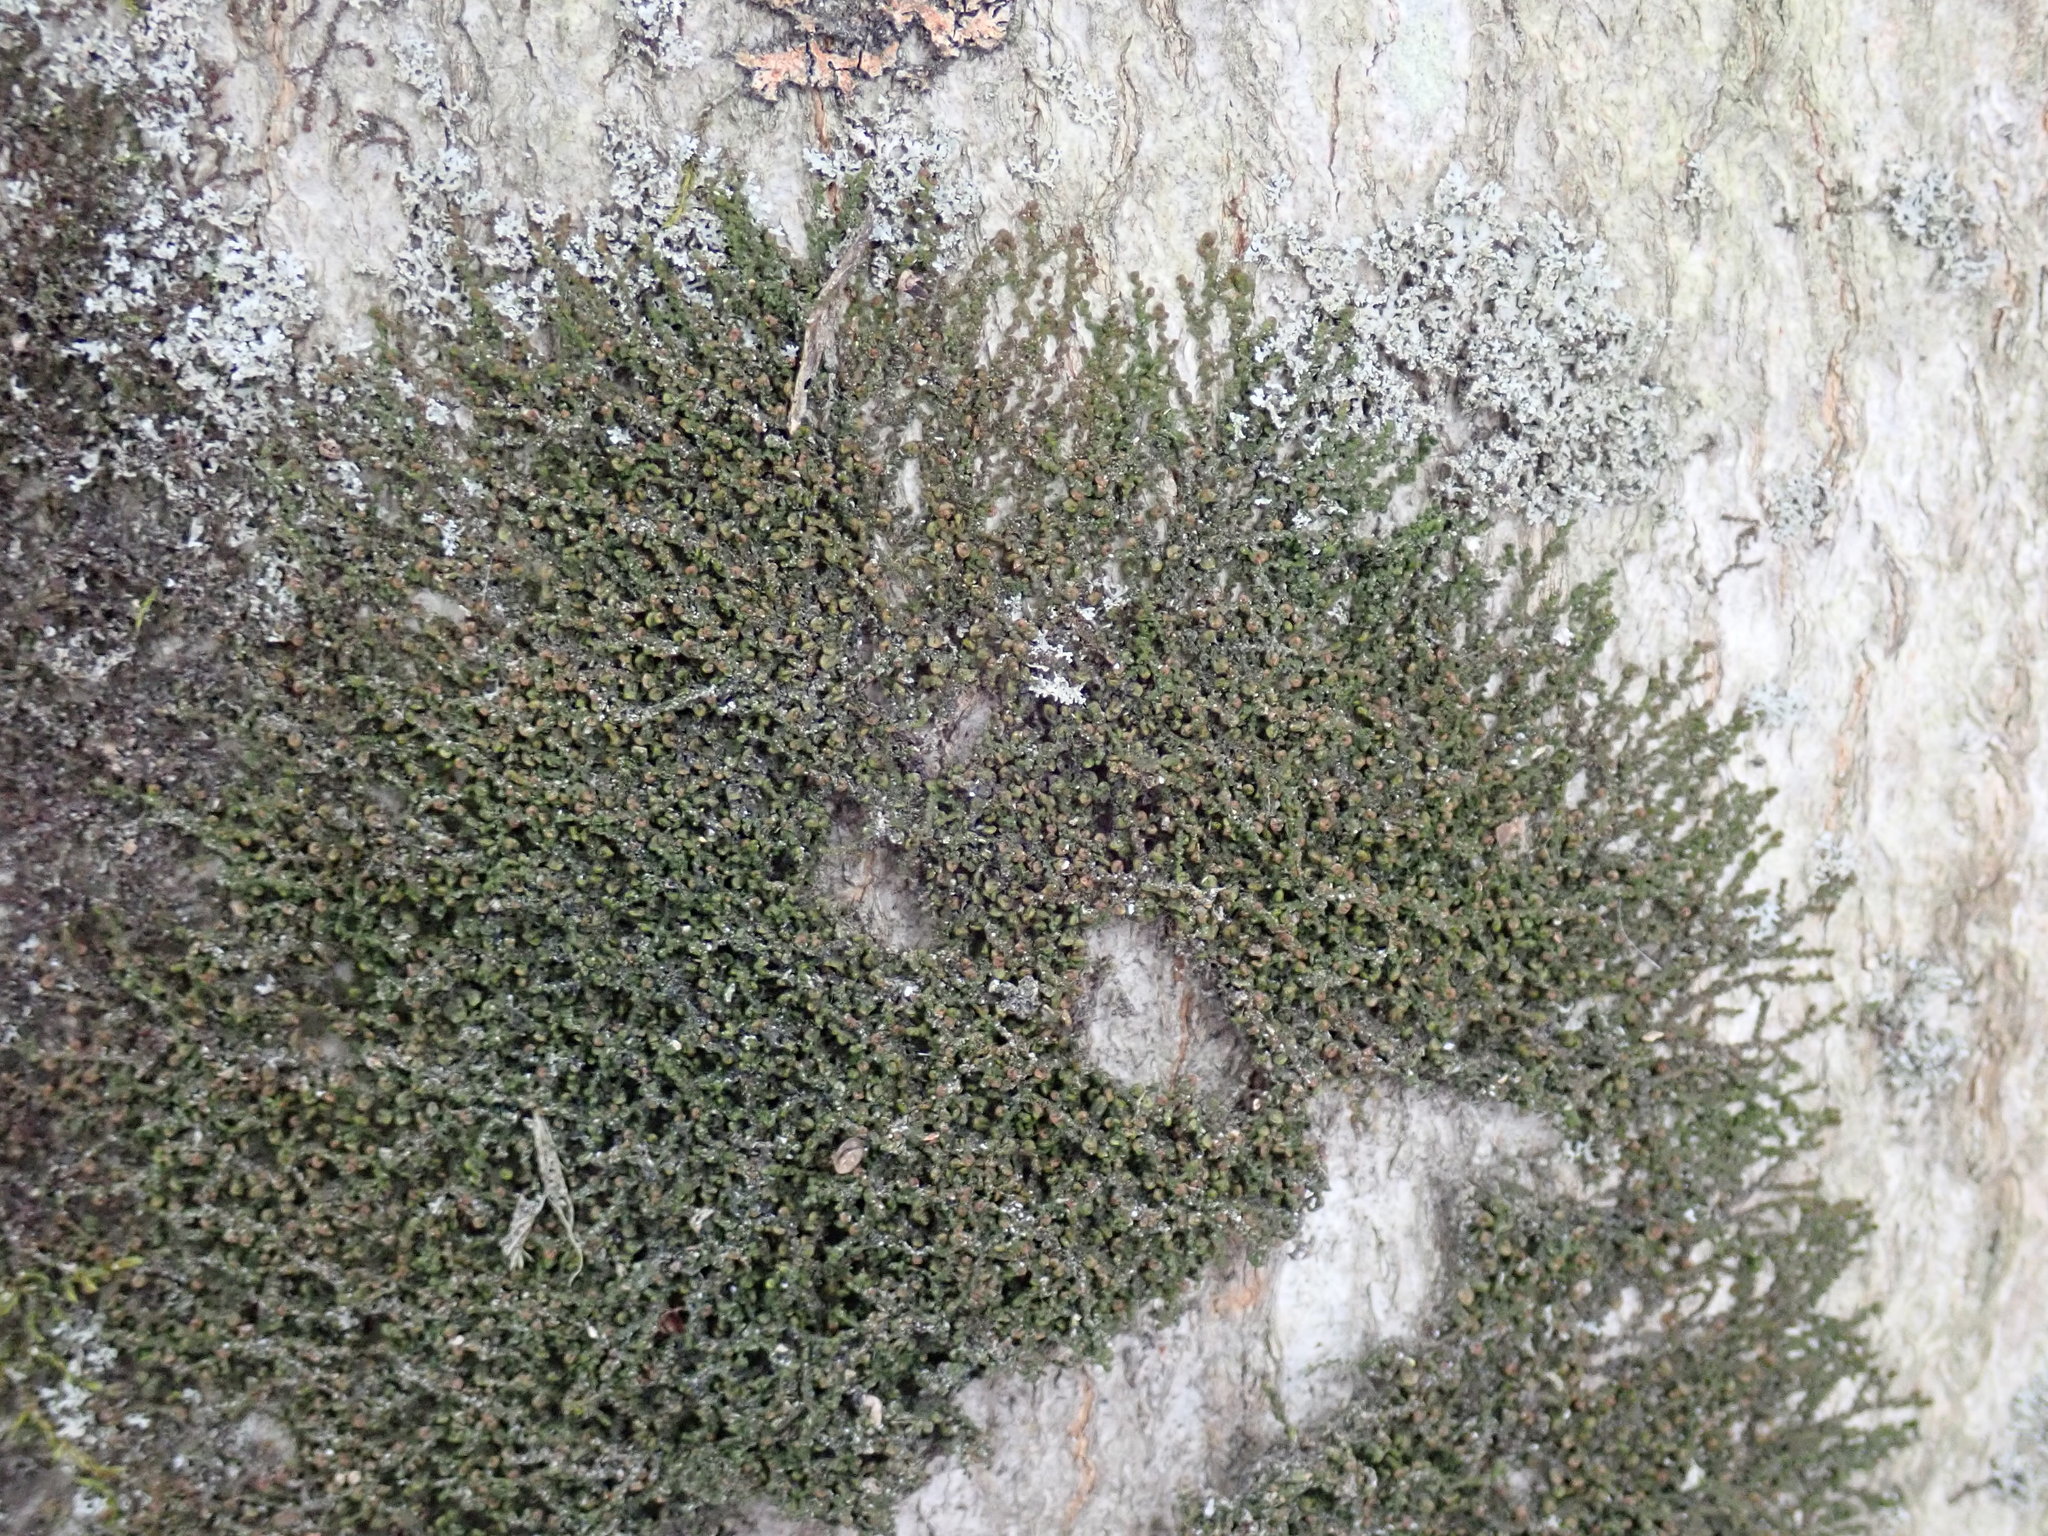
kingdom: Plantae
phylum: Marchantiophyta
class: Jungermanniopsida
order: Porellales
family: Frullaniaceae
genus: Frullania
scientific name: Frullania
